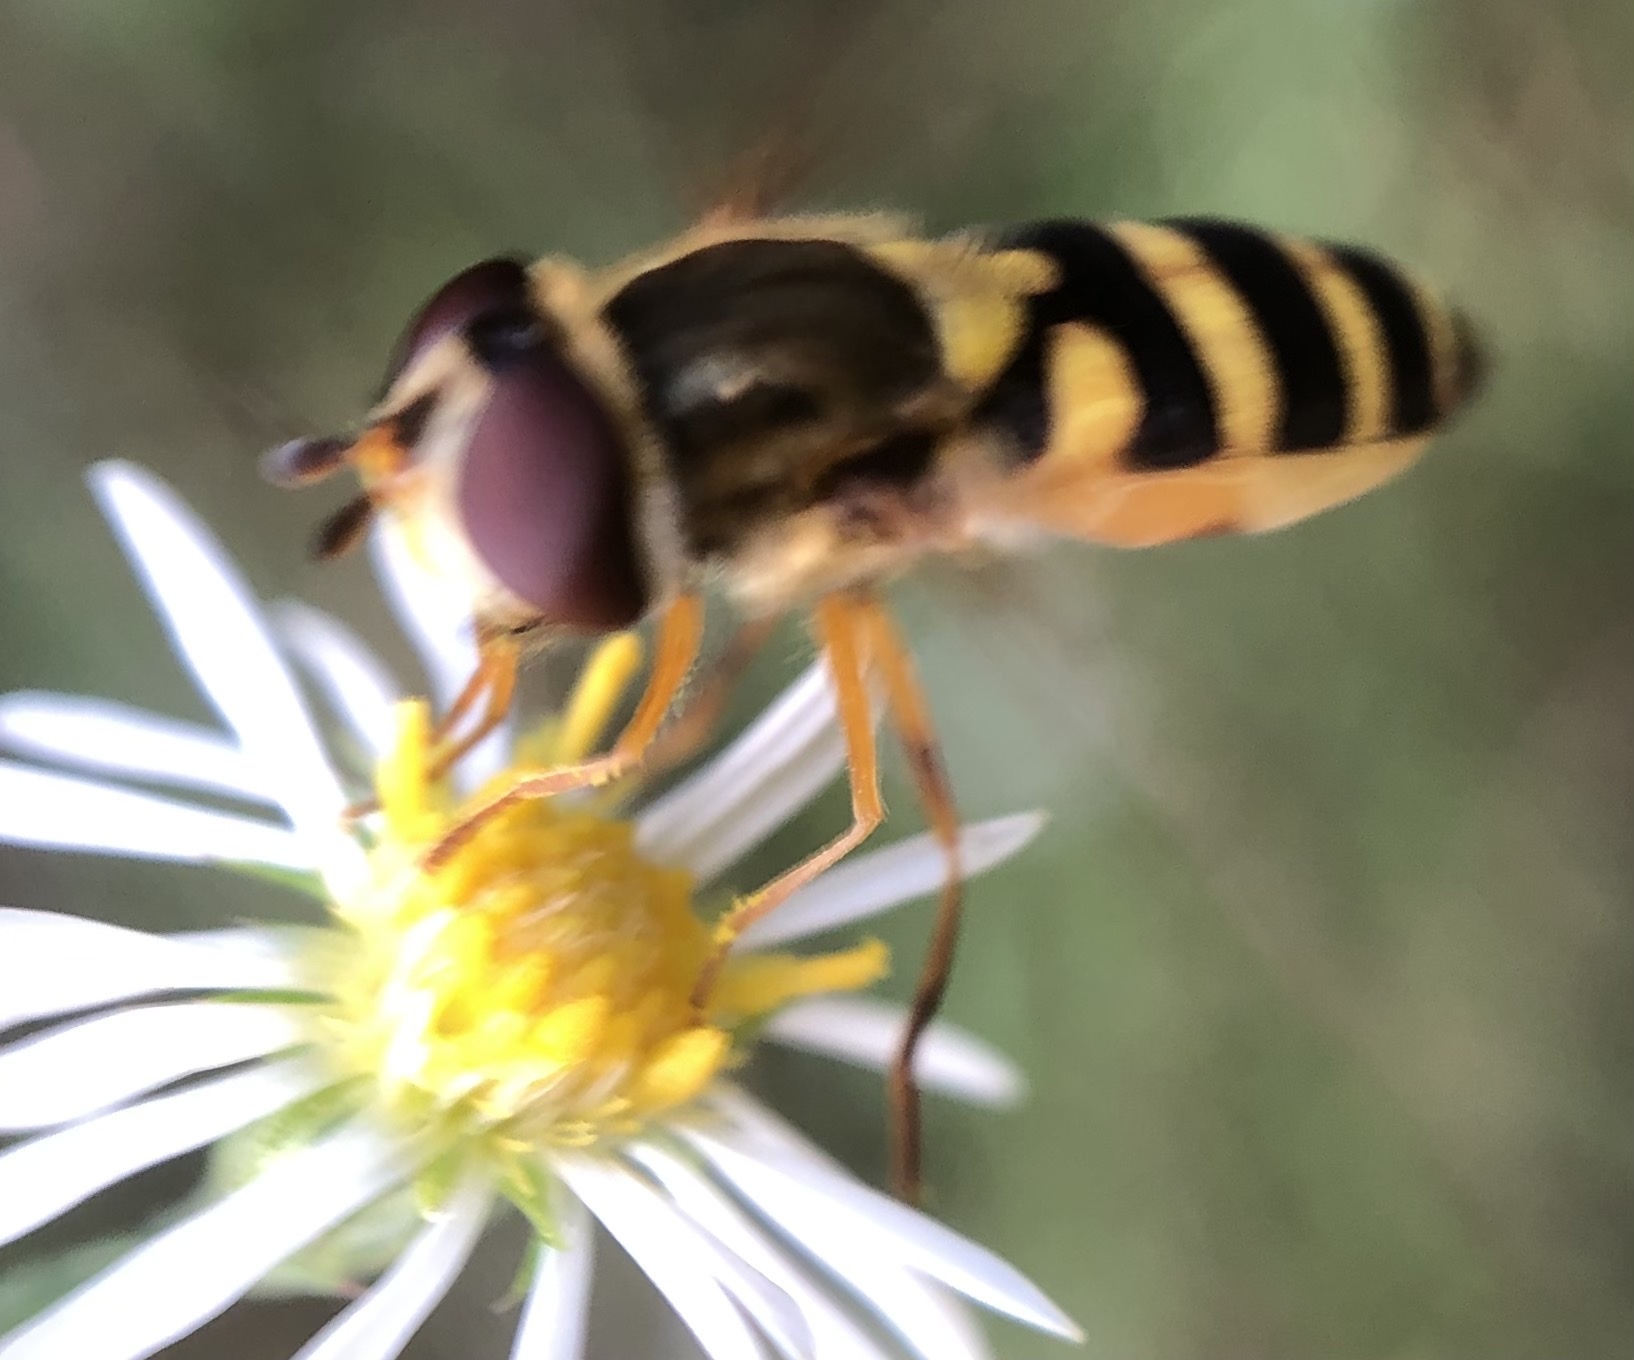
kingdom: Animalia
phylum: Arthropoda
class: Insecta
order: Diptera
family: Syrphidae
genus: Syrphus
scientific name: Syrphus rectus
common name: Yellow-legged flower fly
